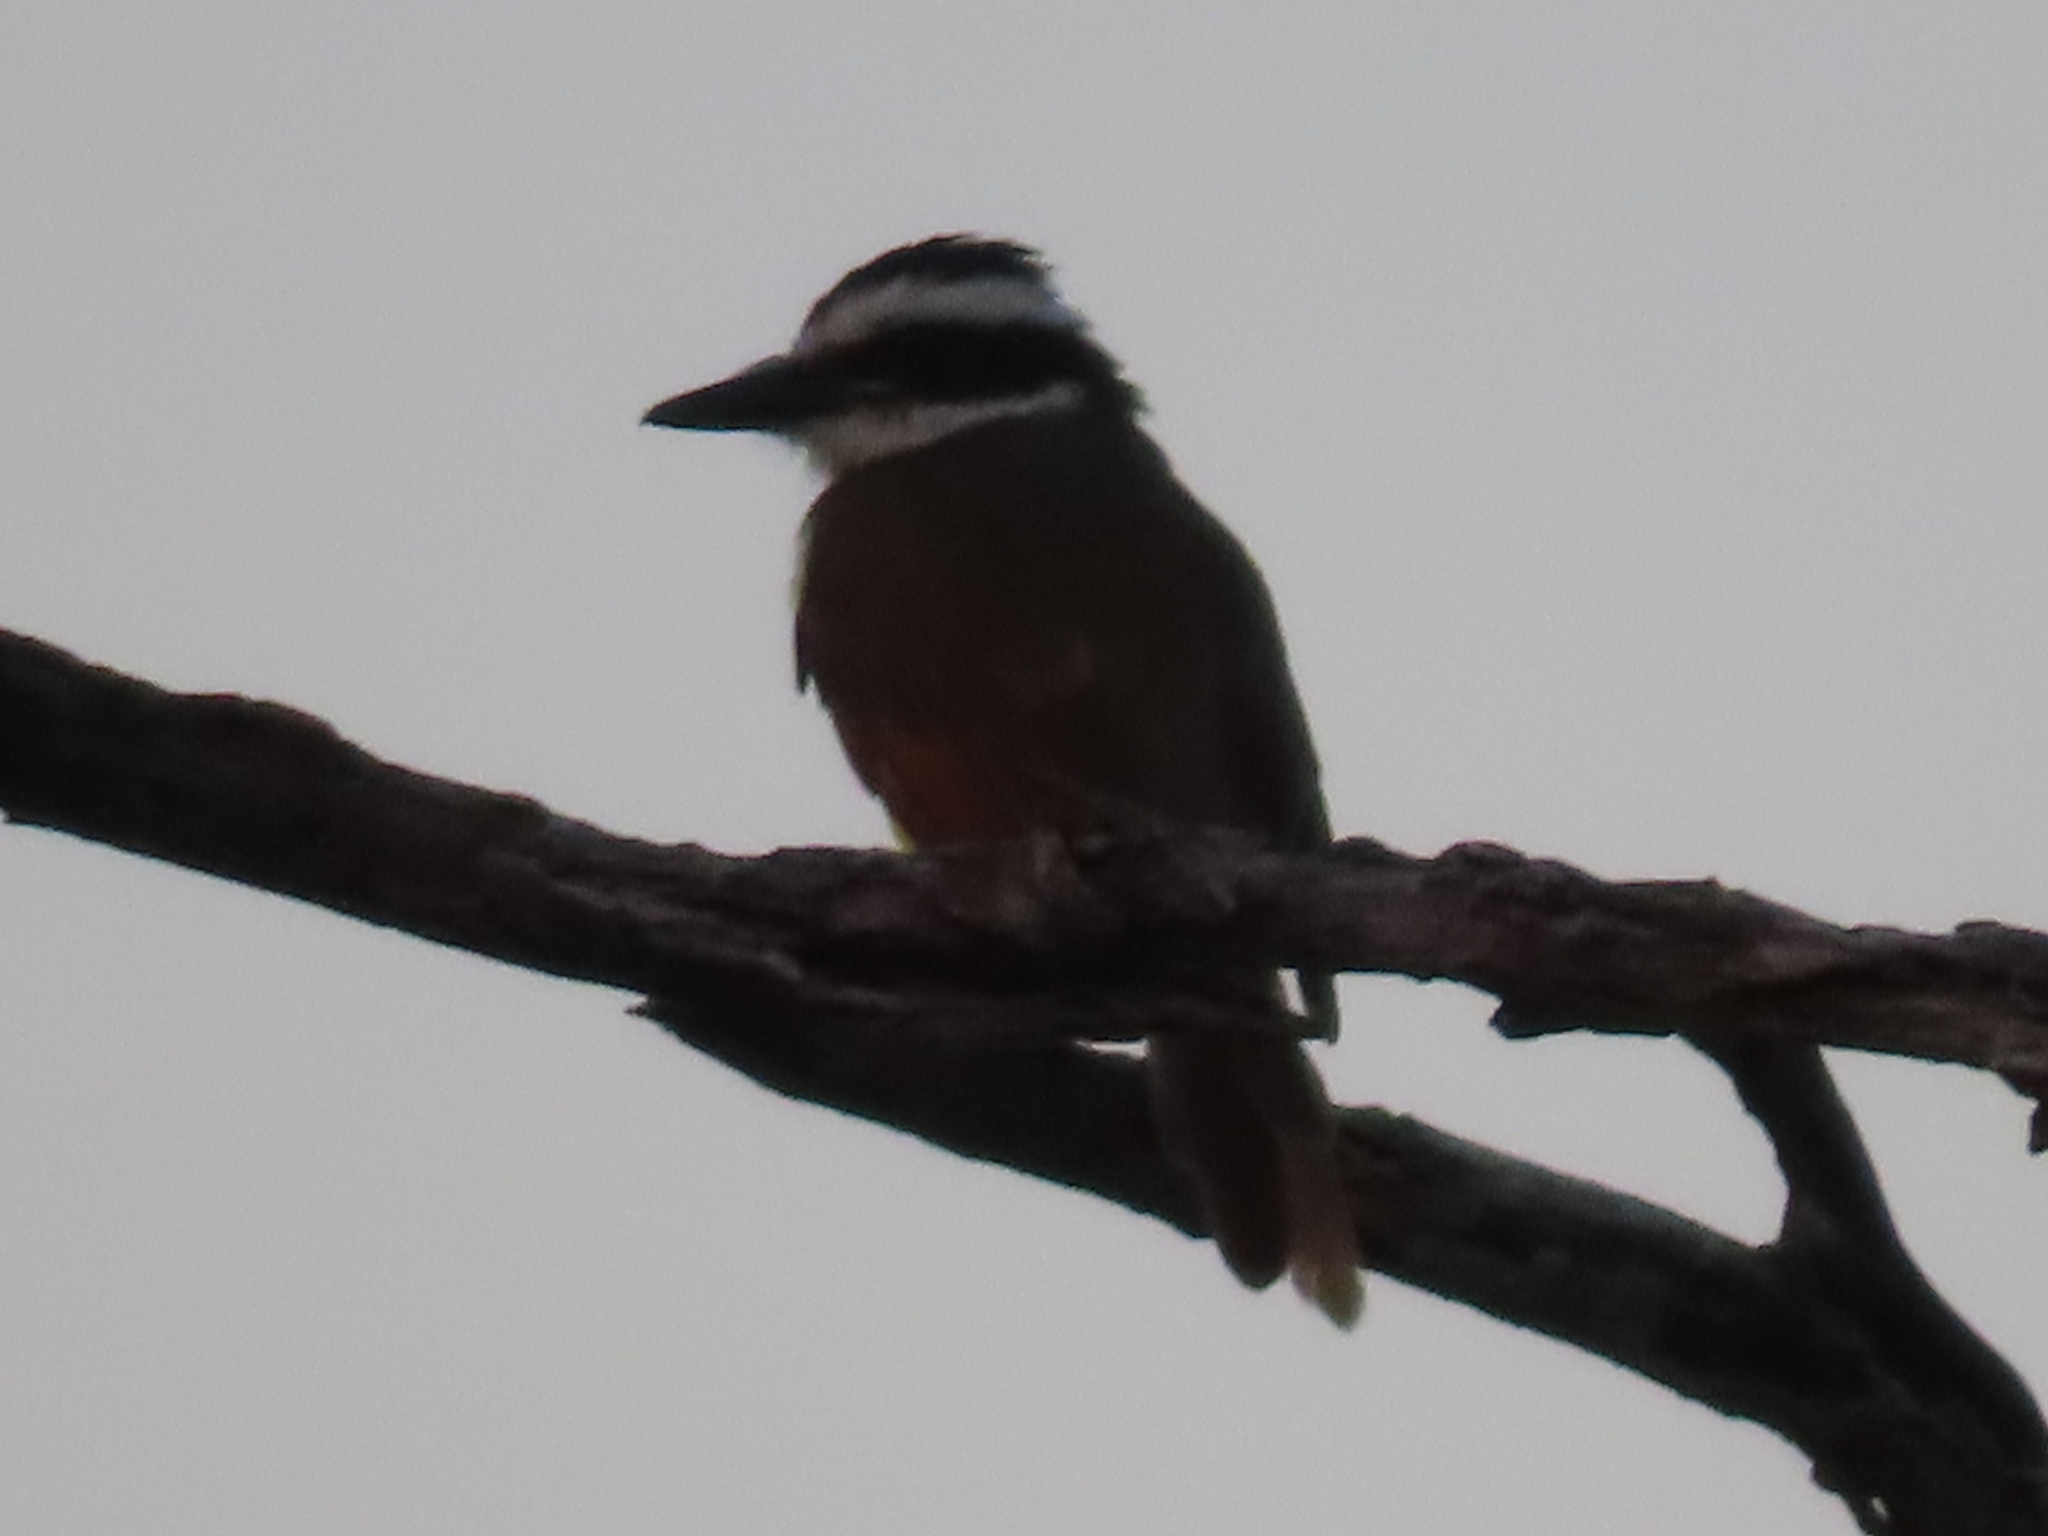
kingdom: Animalia
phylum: Chordata
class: Aves
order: Passeriformes
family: Tyrannidae
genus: Pitangus
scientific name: Pitangus sulphuratus
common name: Great kiskadee
